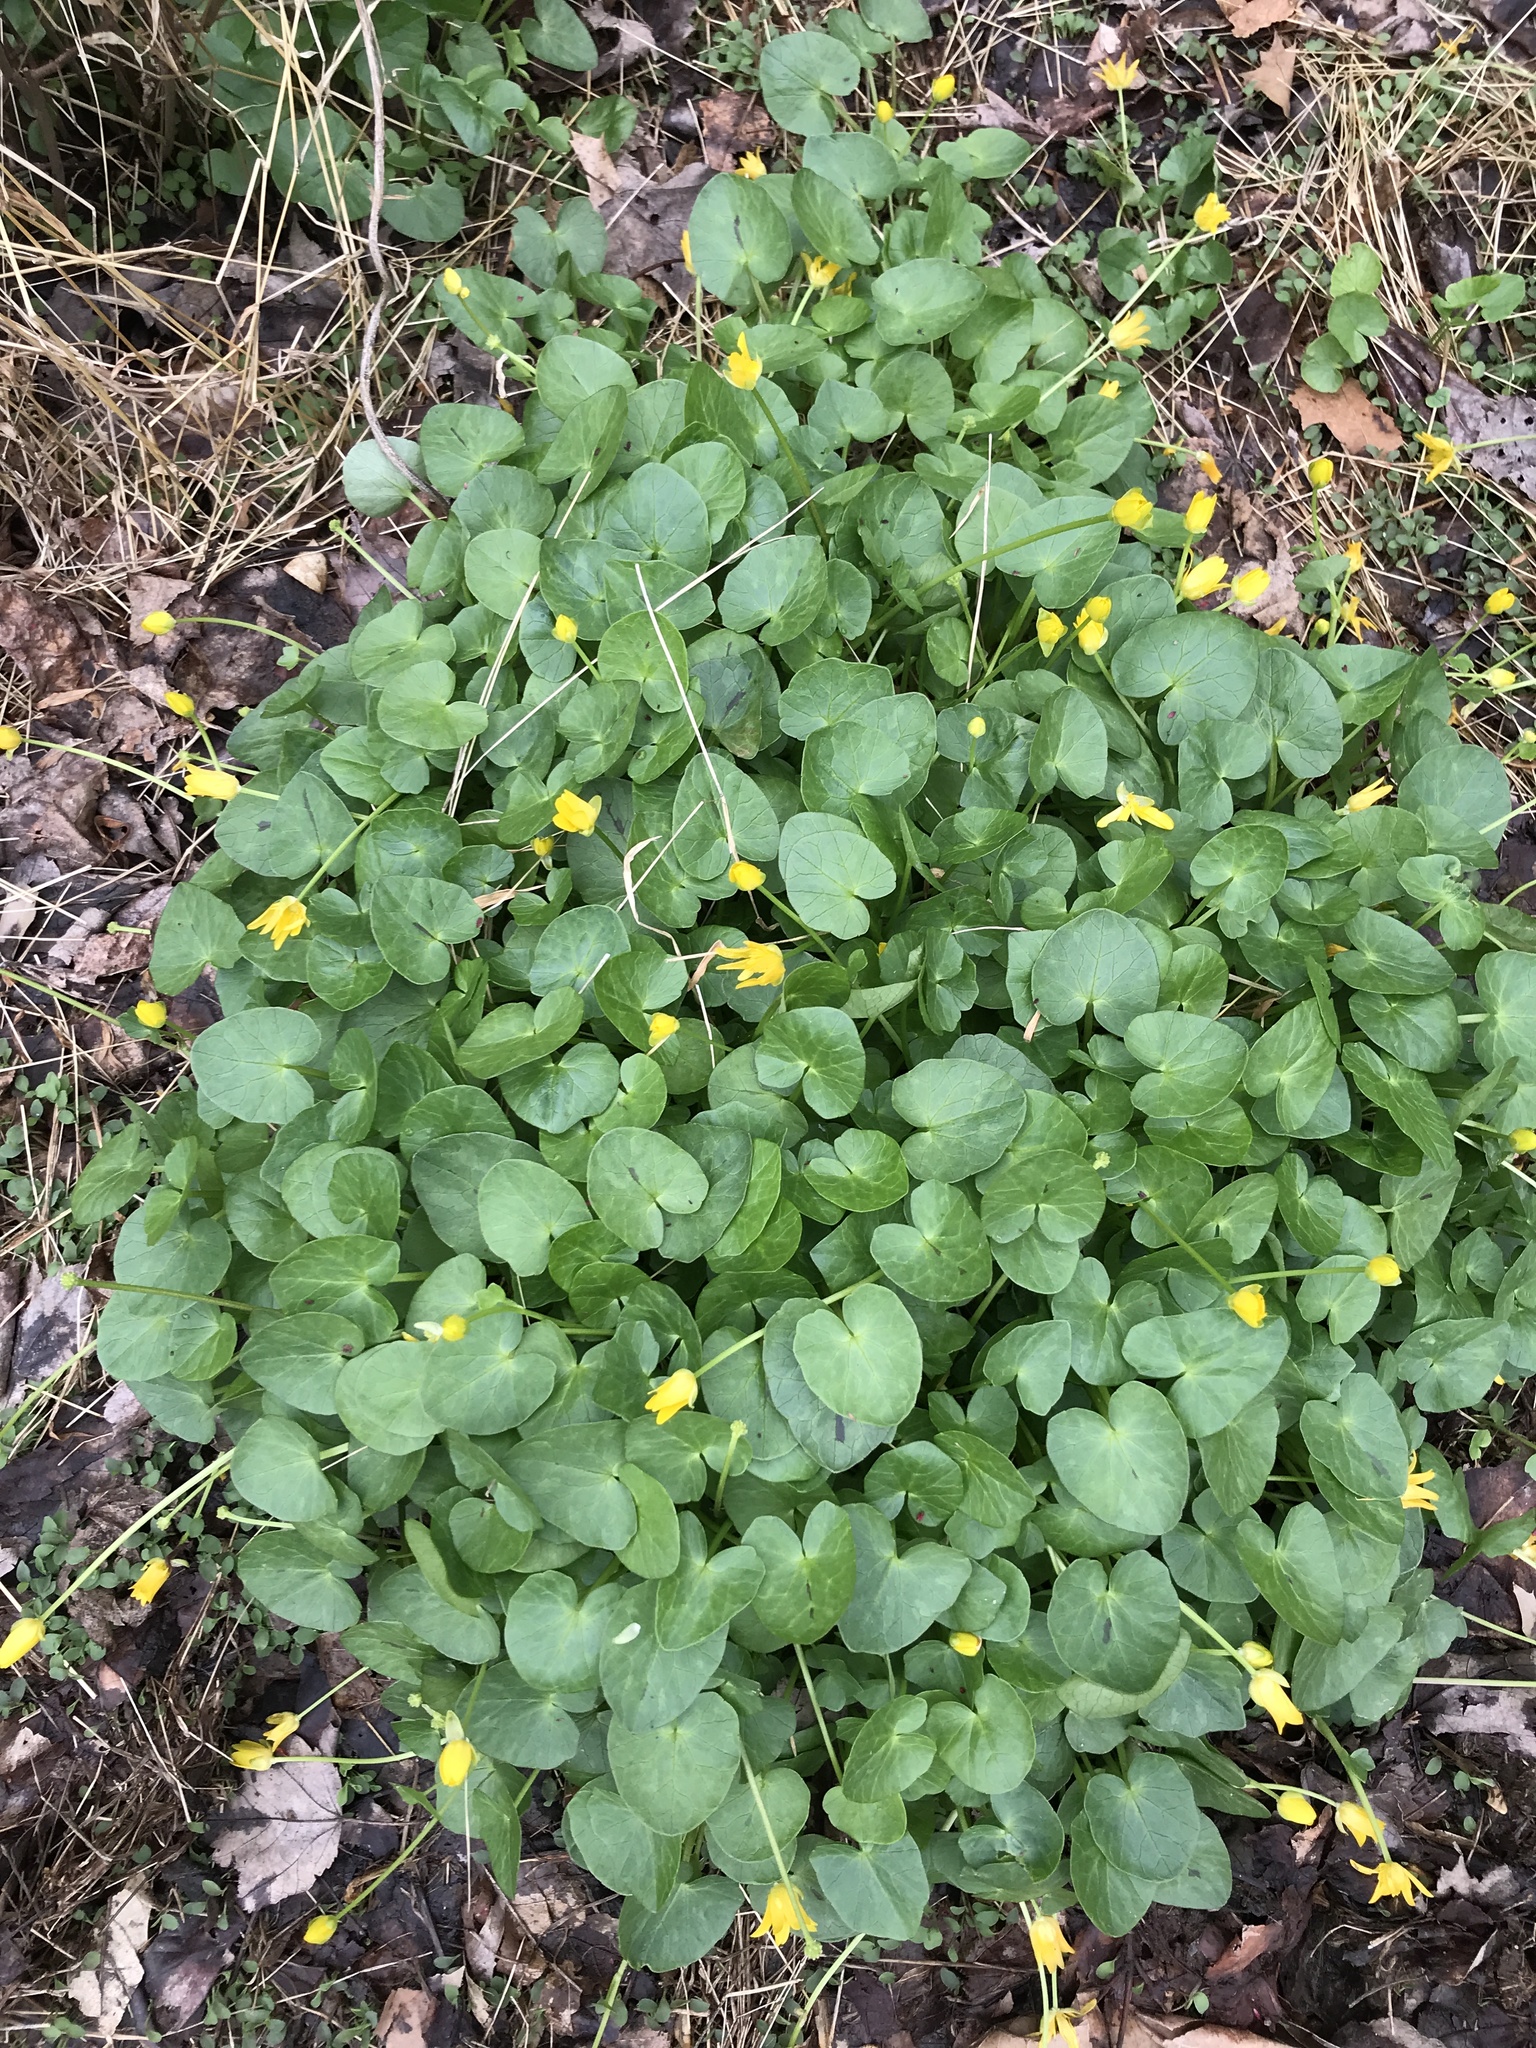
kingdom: Plantae
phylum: Tracheophyta
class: Magnoliopsida
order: Ranunculales
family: Ranunculaceae
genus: Ficaria
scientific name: Ficaria verna
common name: Lesser celandine
